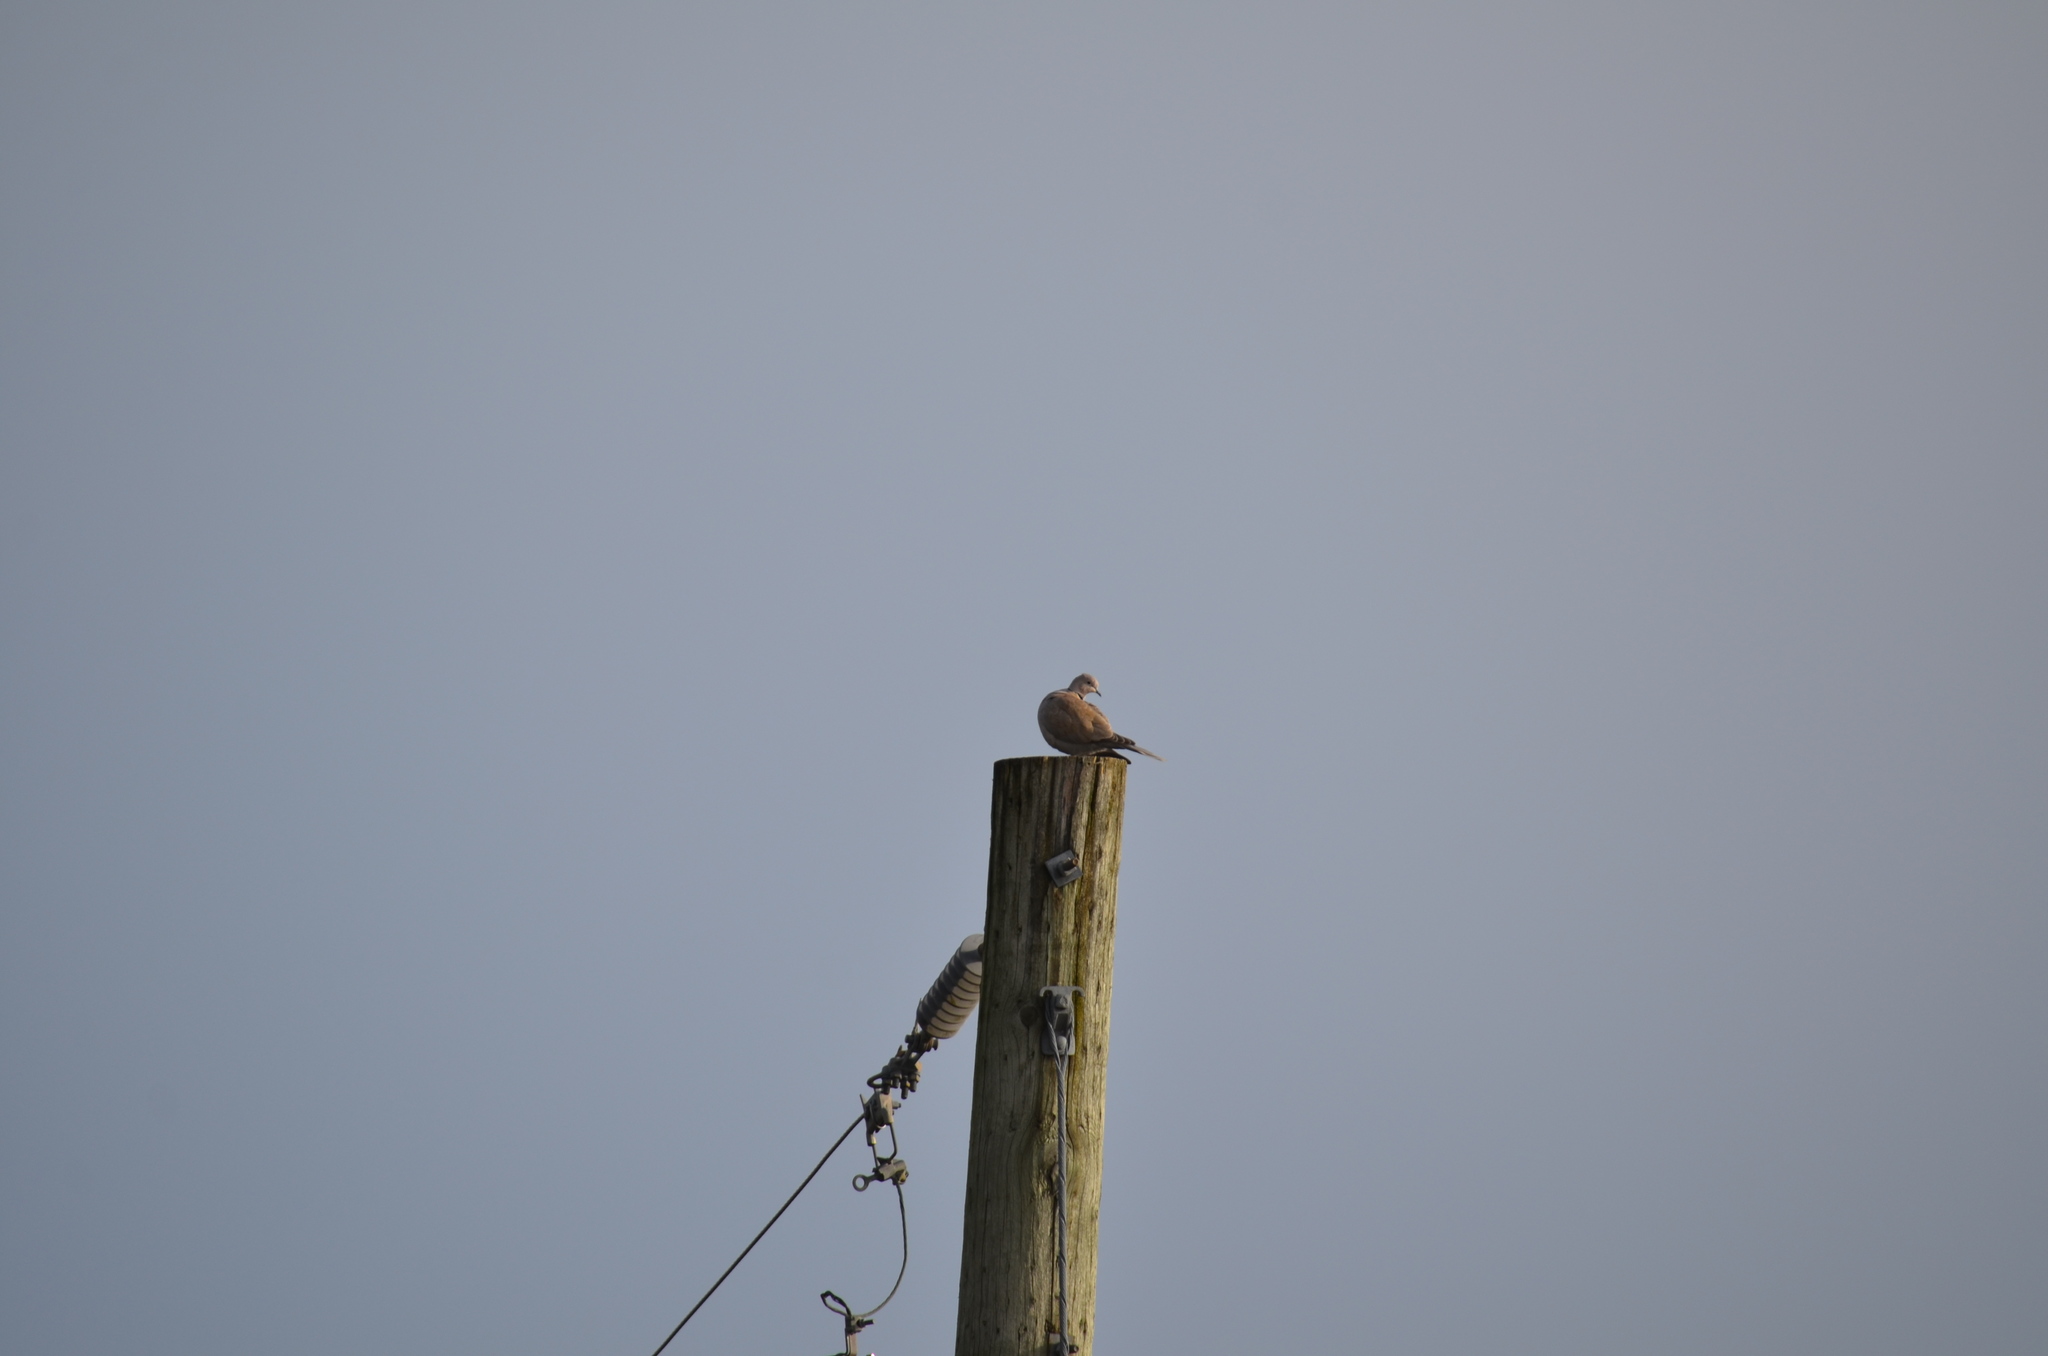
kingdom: Animalia
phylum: Chordata
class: Aves
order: Columbiformes
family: Columbidae
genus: Streptopelia
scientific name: Streptopelia decaocto
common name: Eurasian collared dove
